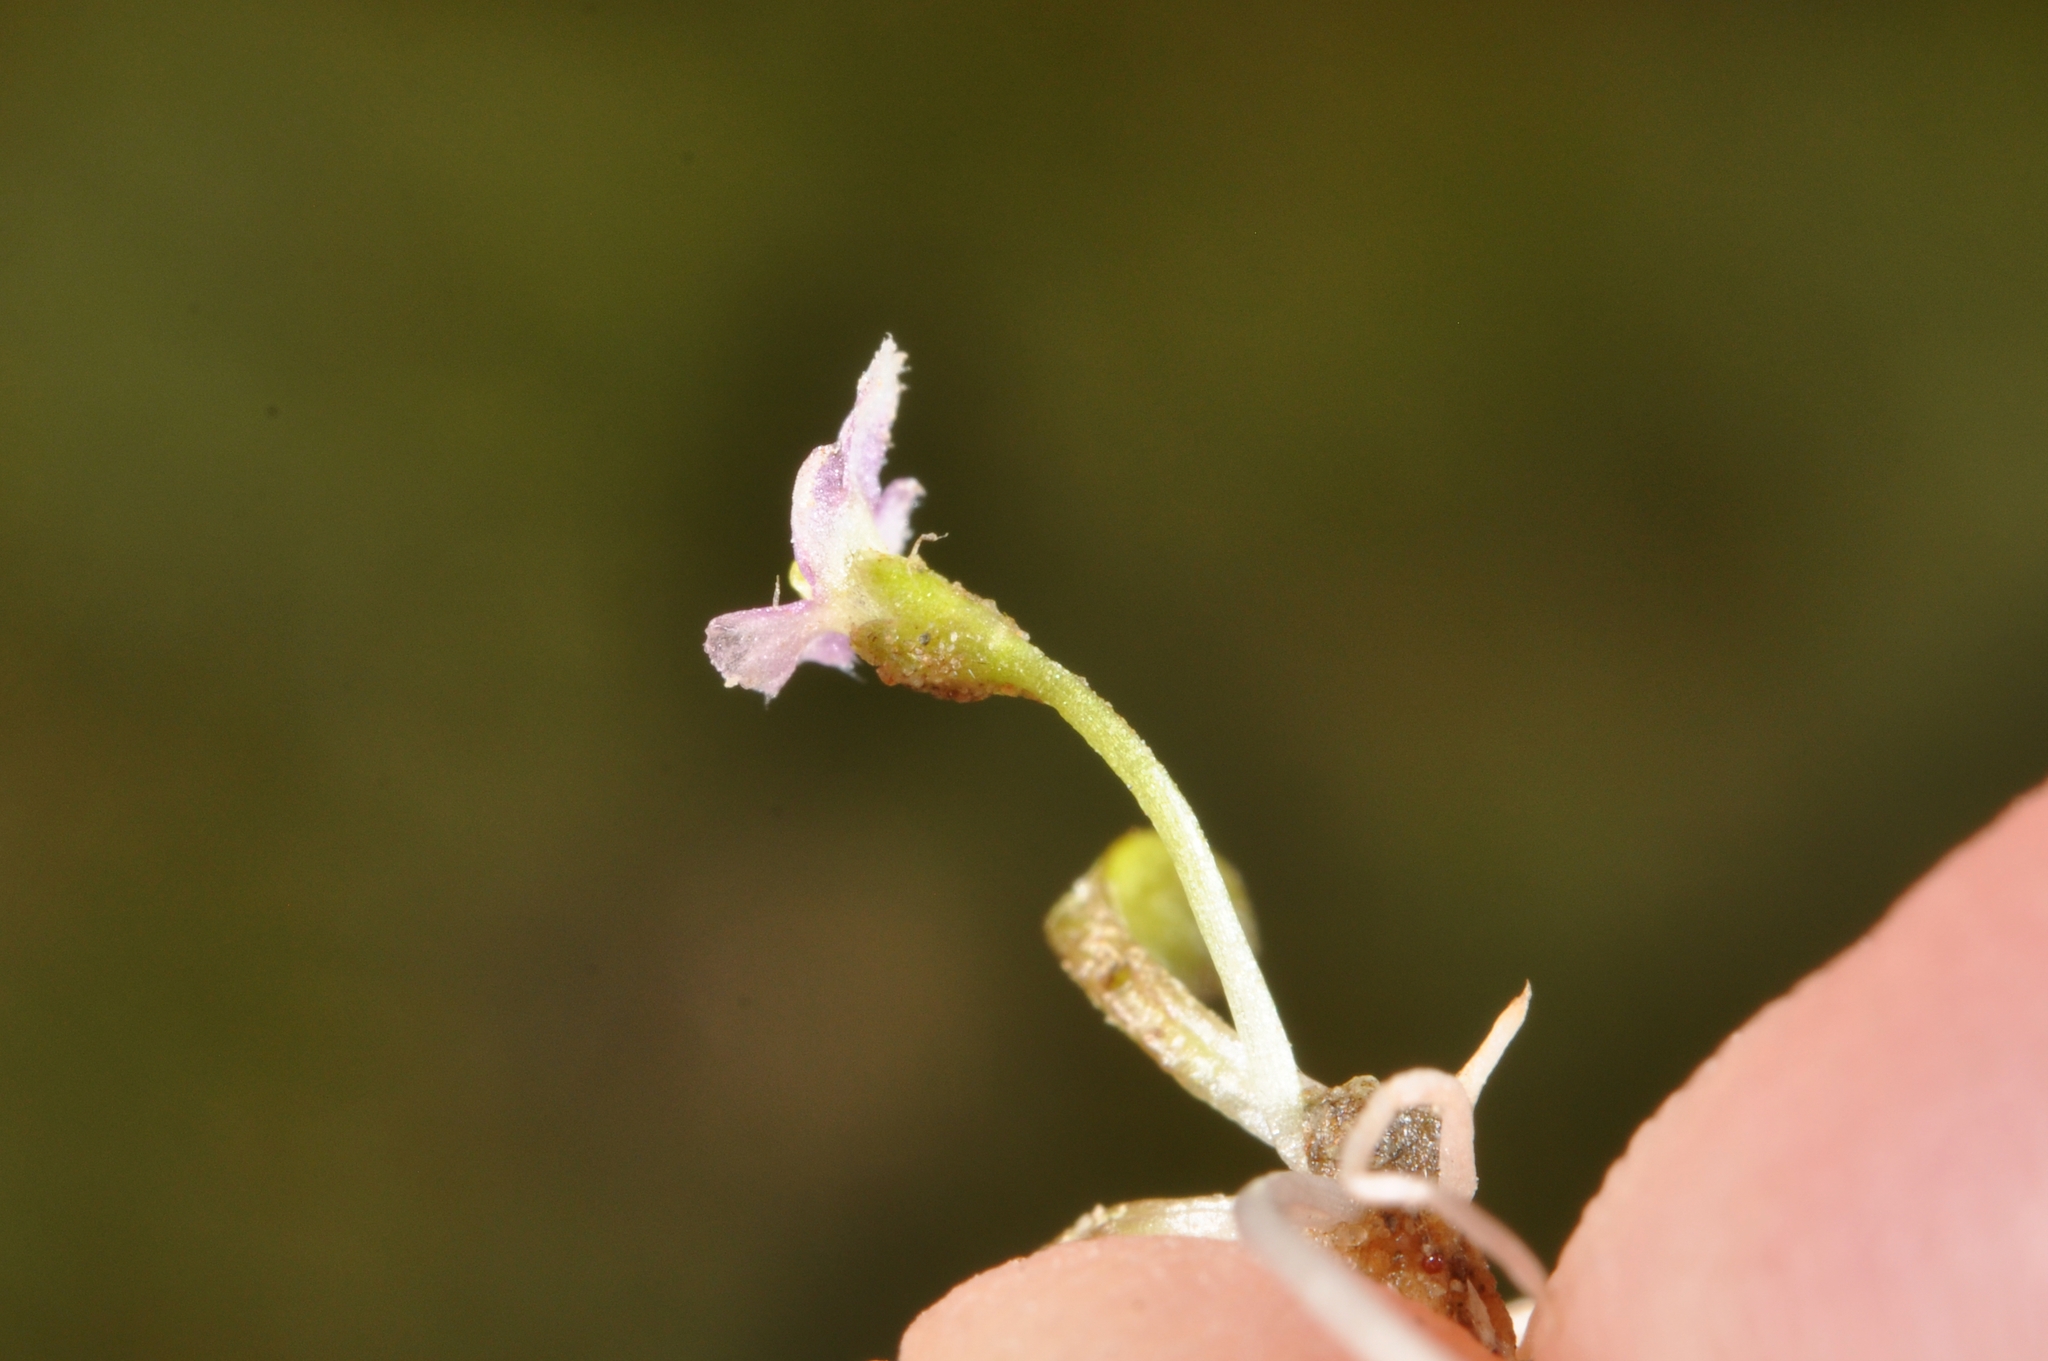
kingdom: Plantae
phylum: Tracheophyta
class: Magnoliopsida
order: Lamiales
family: Phrymaceae
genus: Glossostigma
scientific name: Glossostigma elatinoides
